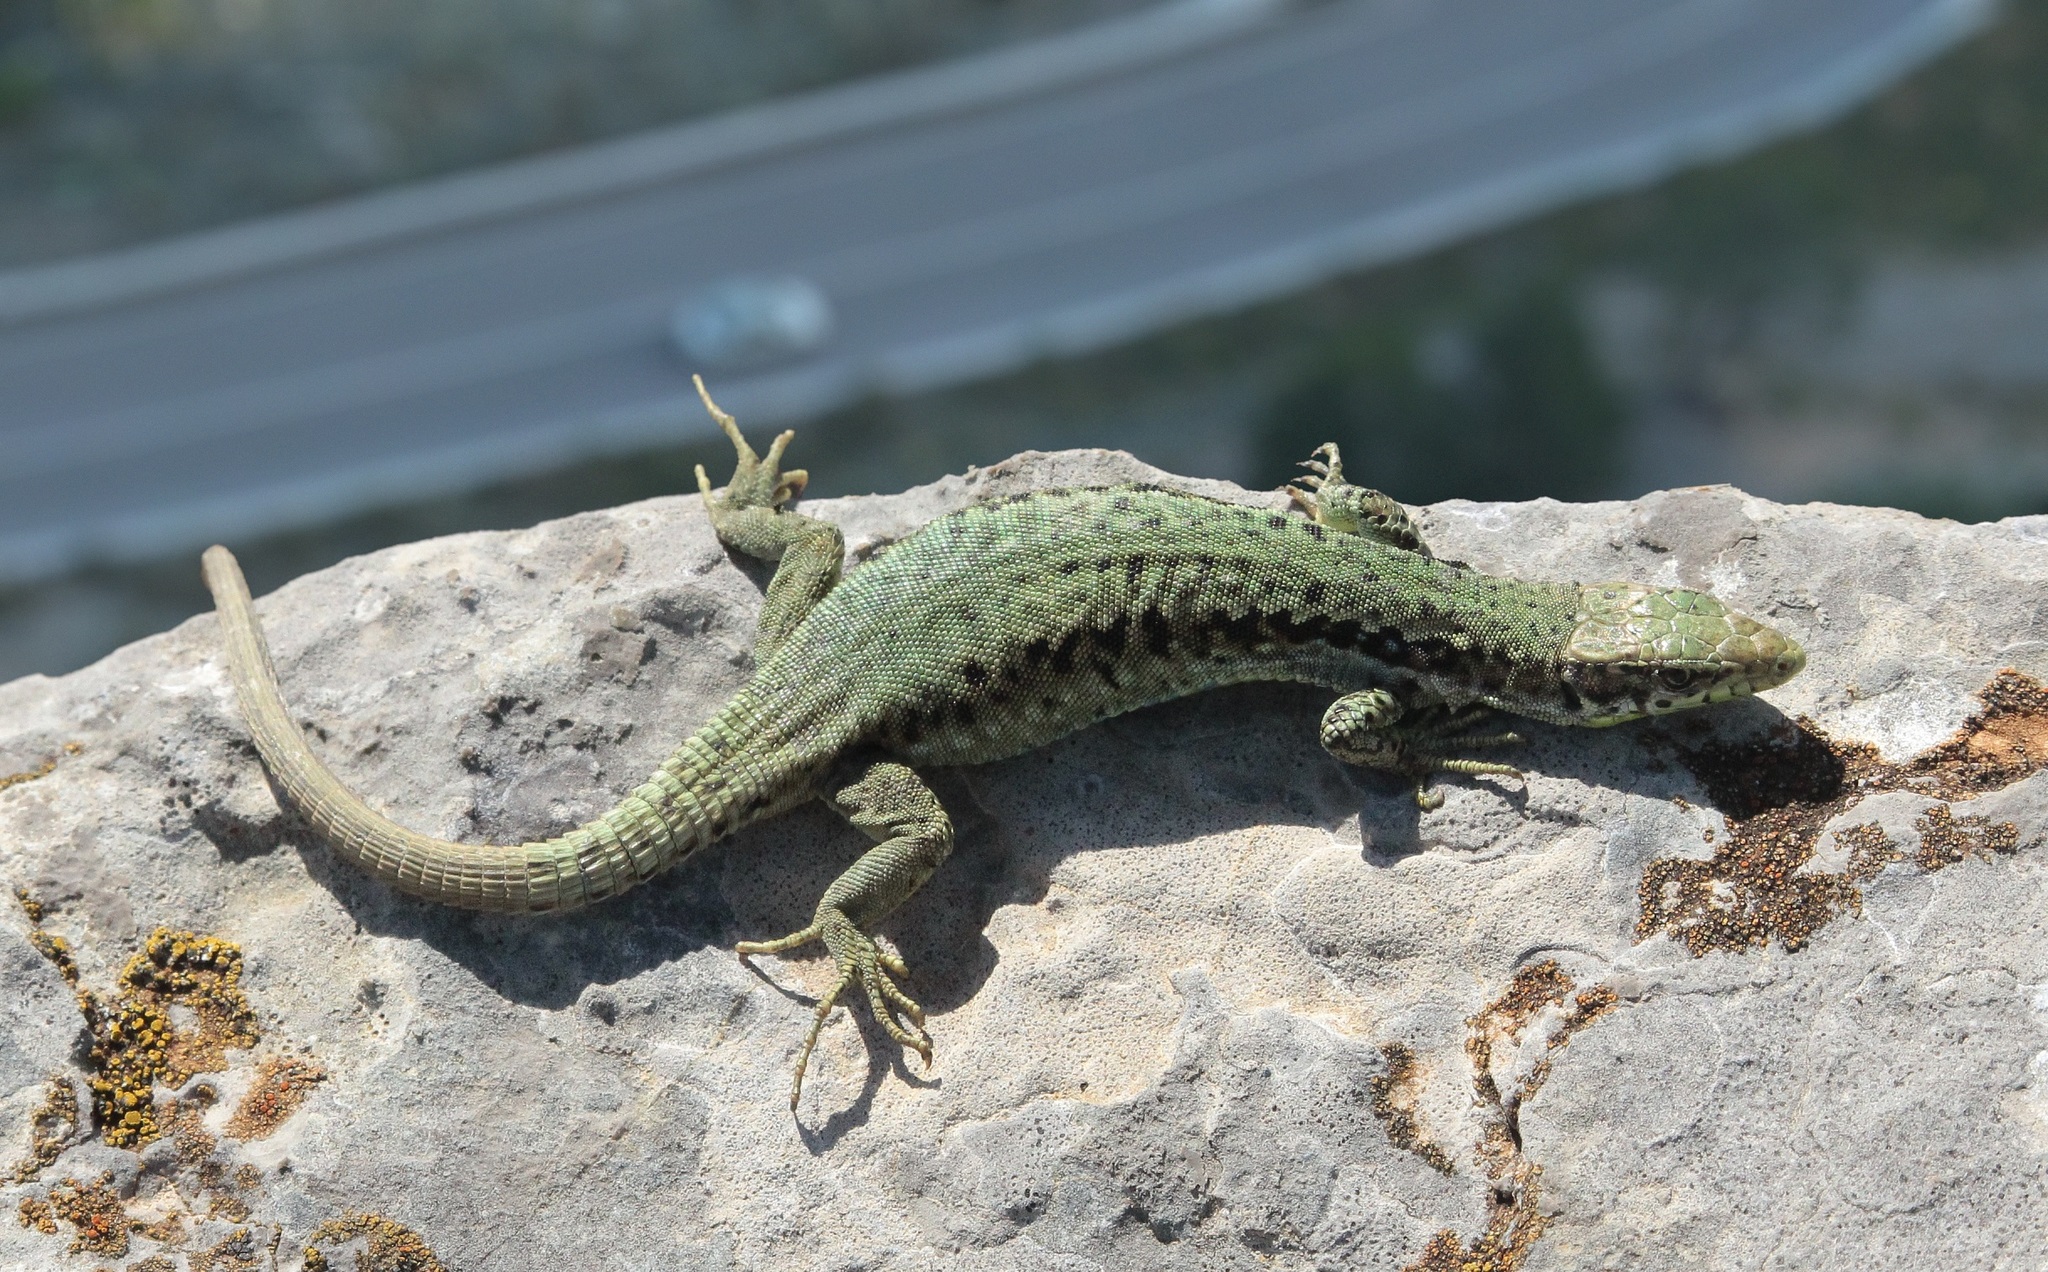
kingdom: Animalia
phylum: Chordata
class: Squamata
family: Lacertidae
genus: Darevskia
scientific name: Darevskia lindholmi
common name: Crimean rock lizard
